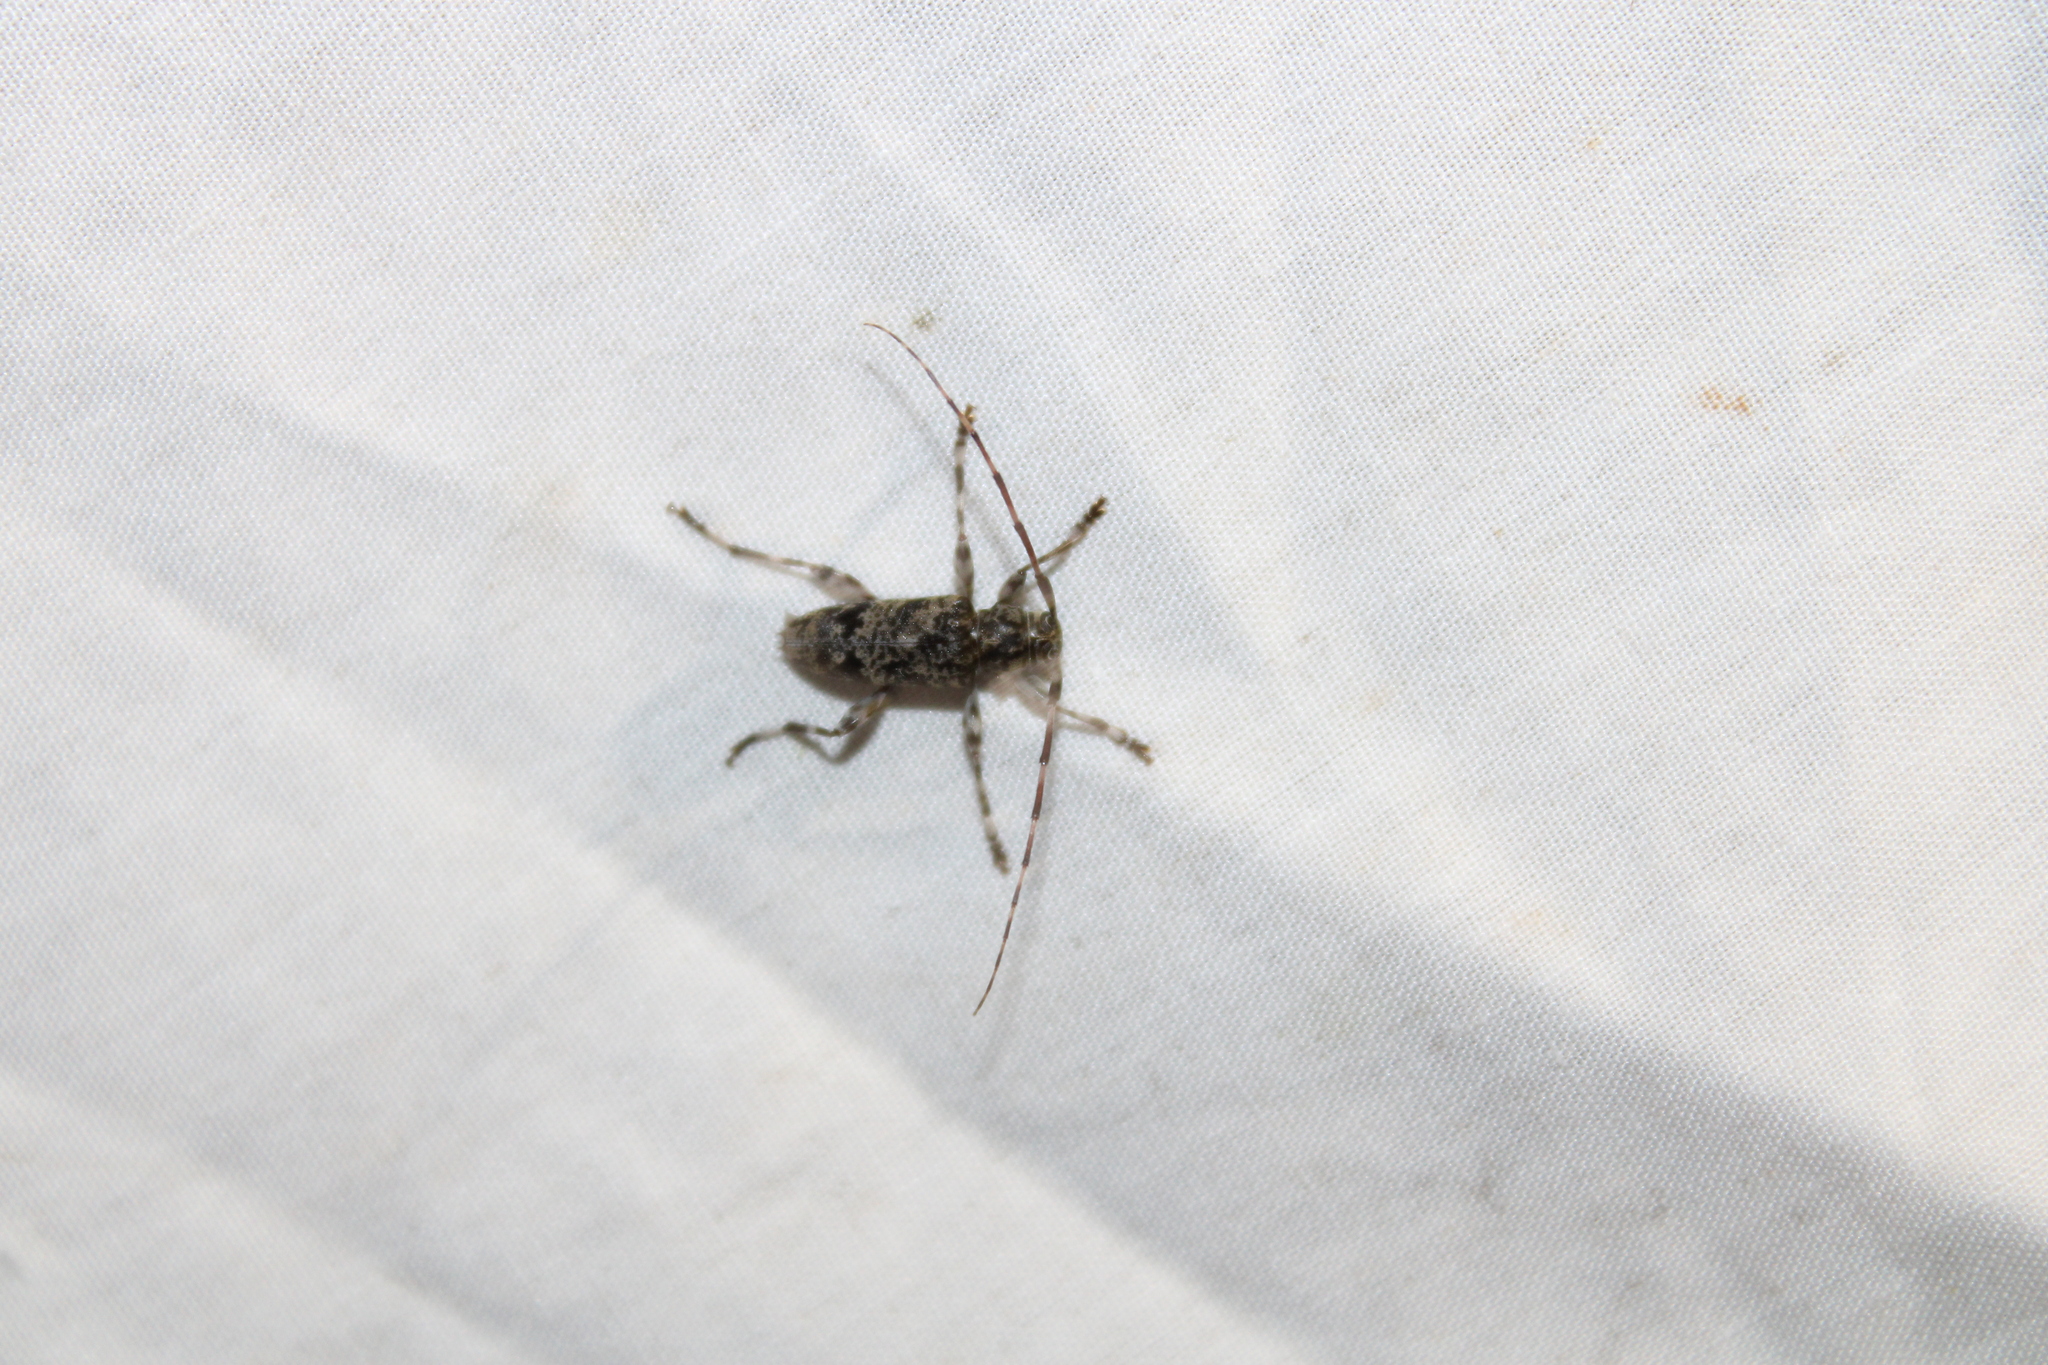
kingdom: Animalia
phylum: Arthropoda
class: Insecta
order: Coleoptera
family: Cerambycidae
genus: Graphisurus
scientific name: Graphisurus fasciatus
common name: Banded graphisurus
